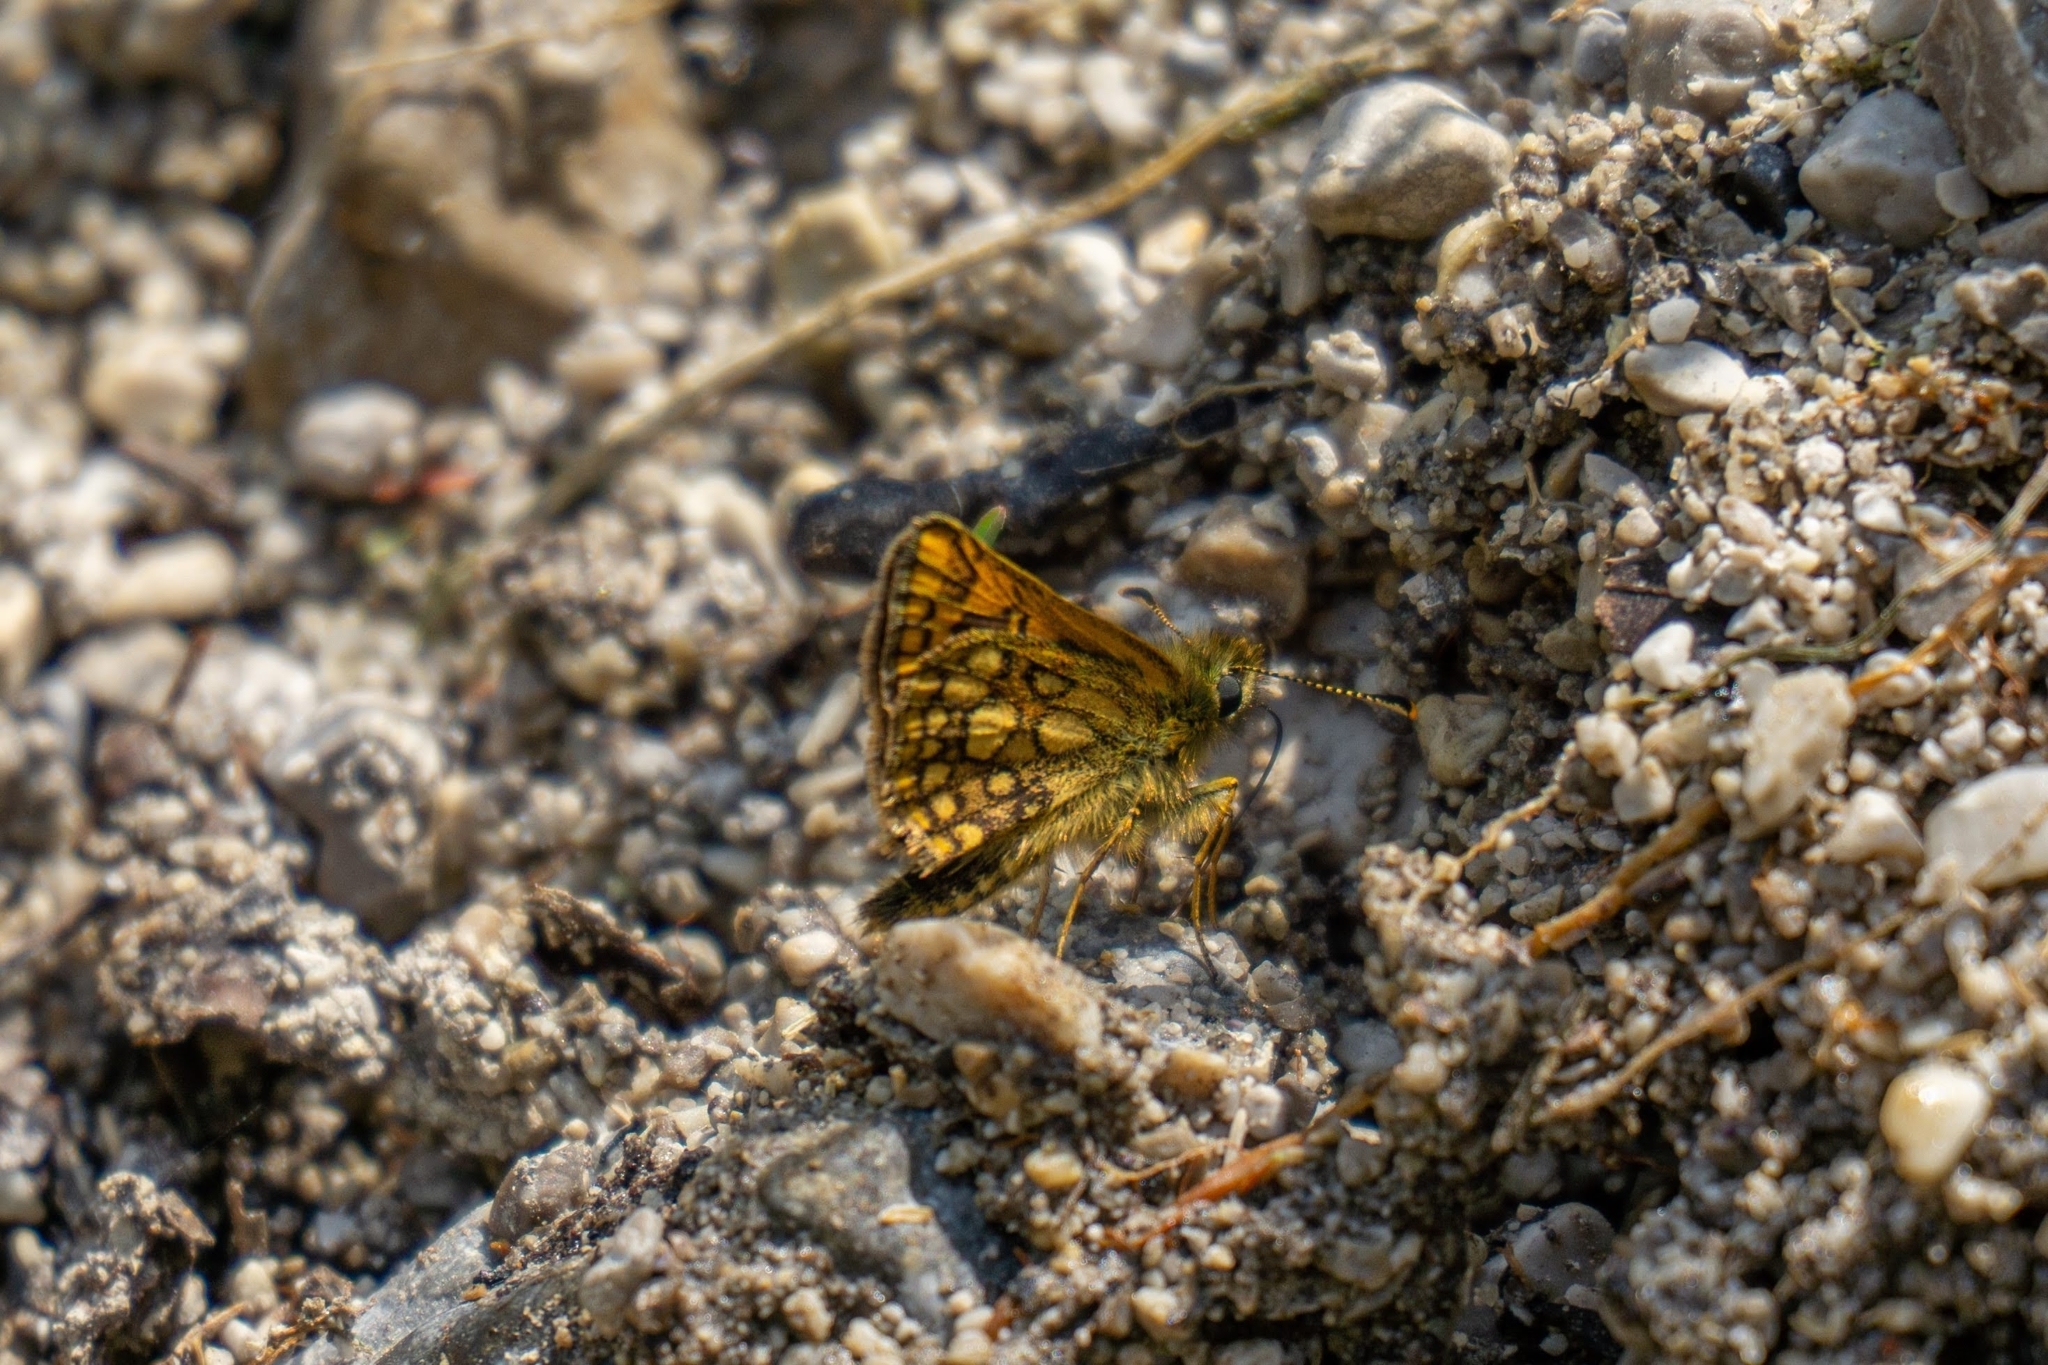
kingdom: Animalia
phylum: Arthropoda
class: Insecta
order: Lepidoptera
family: Hesperiidae
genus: Carterocephalus
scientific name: Carterocephalus palaemon
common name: Chequered skipper
